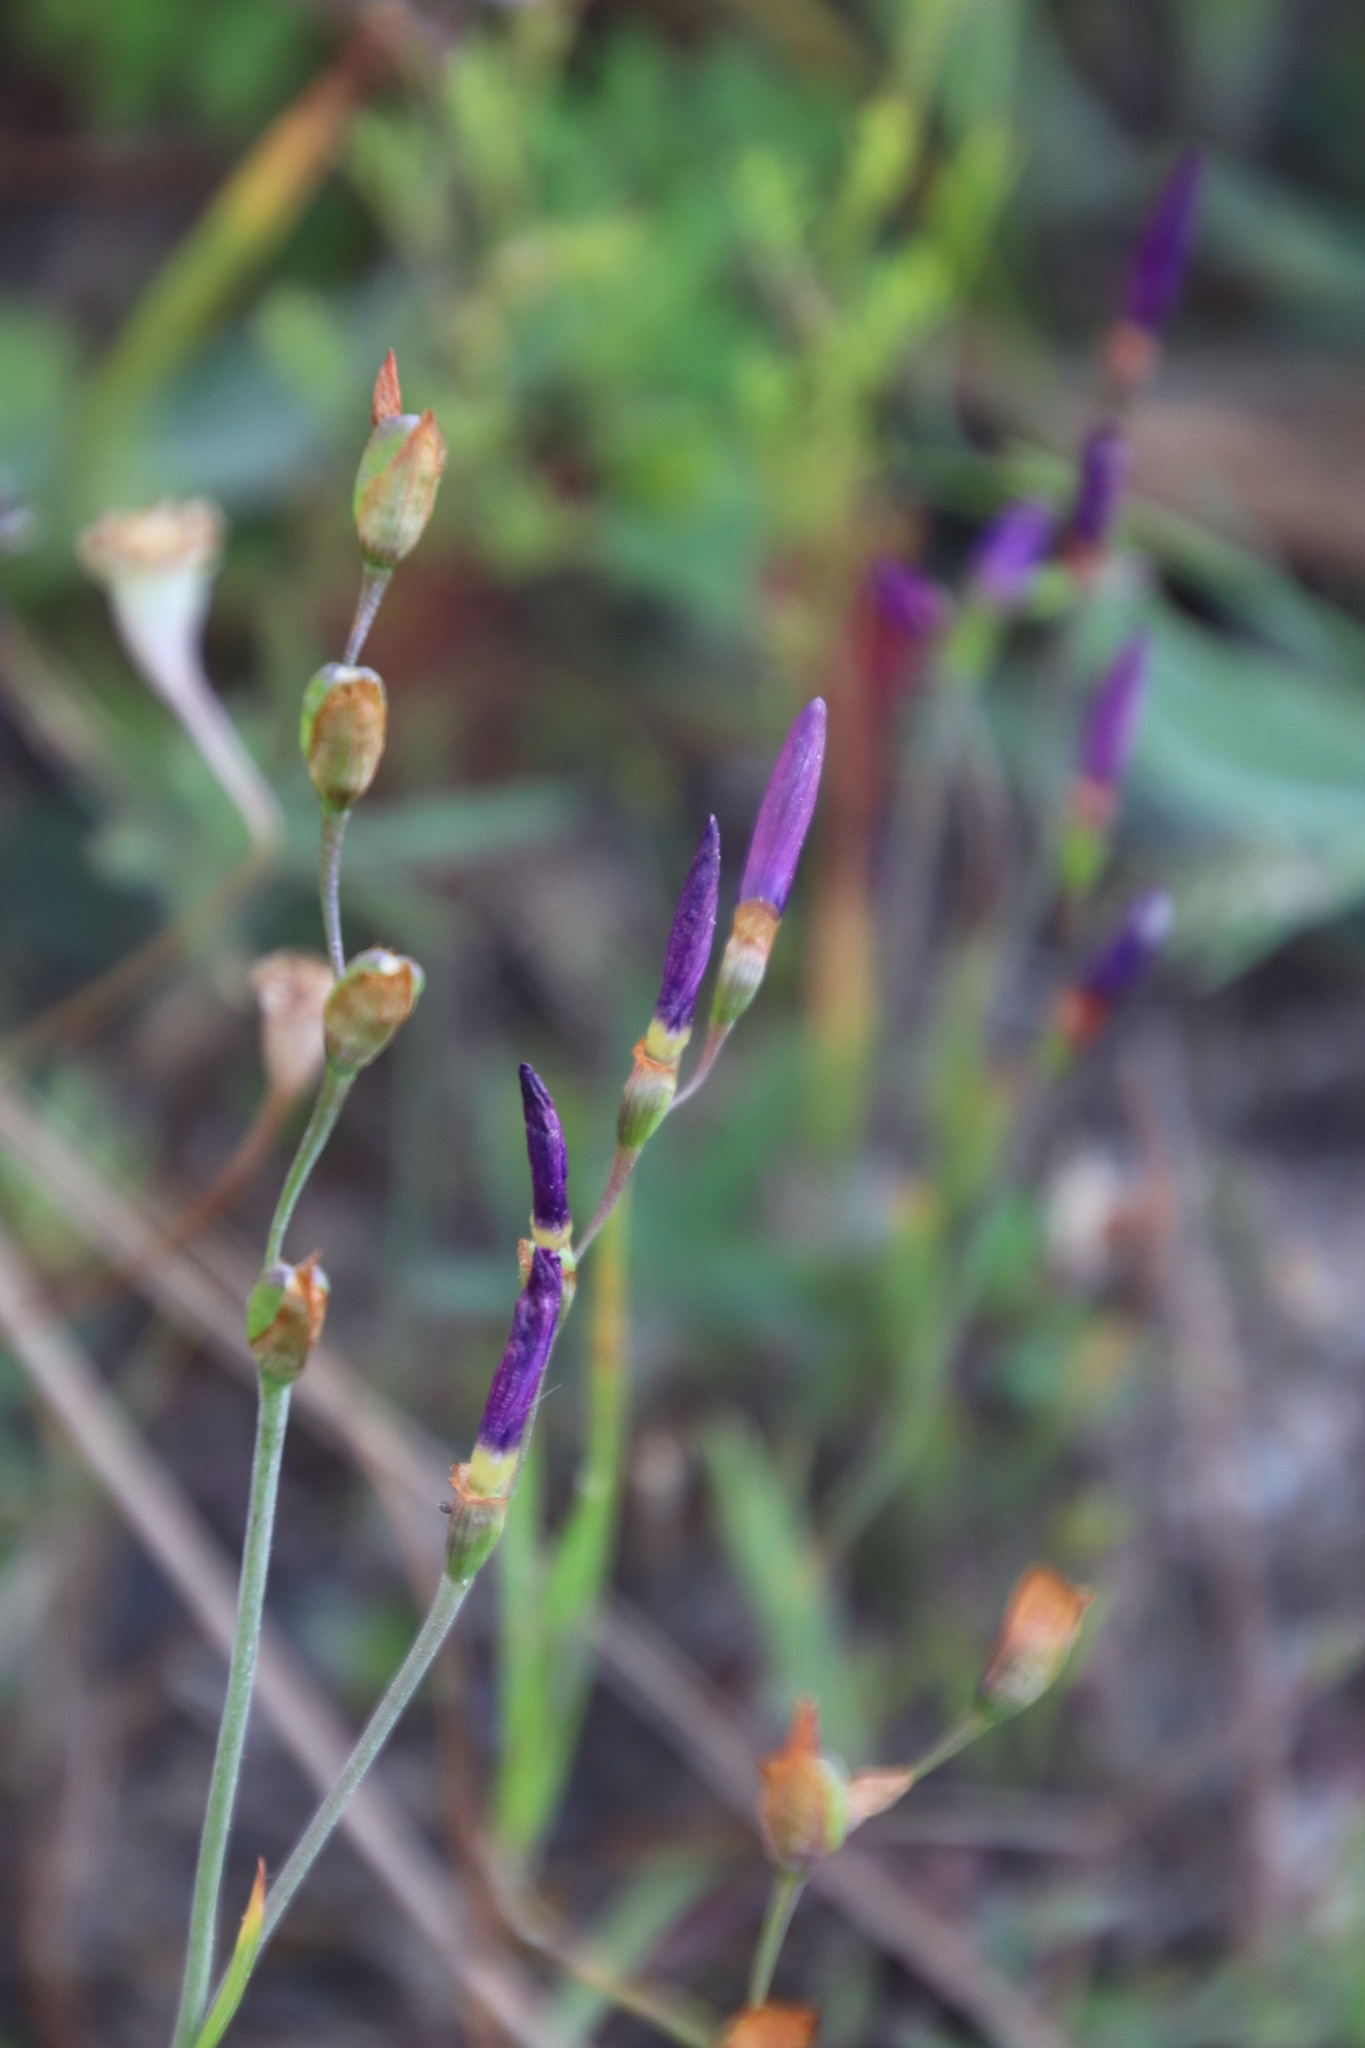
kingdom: Plantae
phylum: Tracheophyta
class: Liliopsida
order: Asparagales
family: Iridaceae
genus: Geissorhiza
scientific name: Geissorhiza aspera
